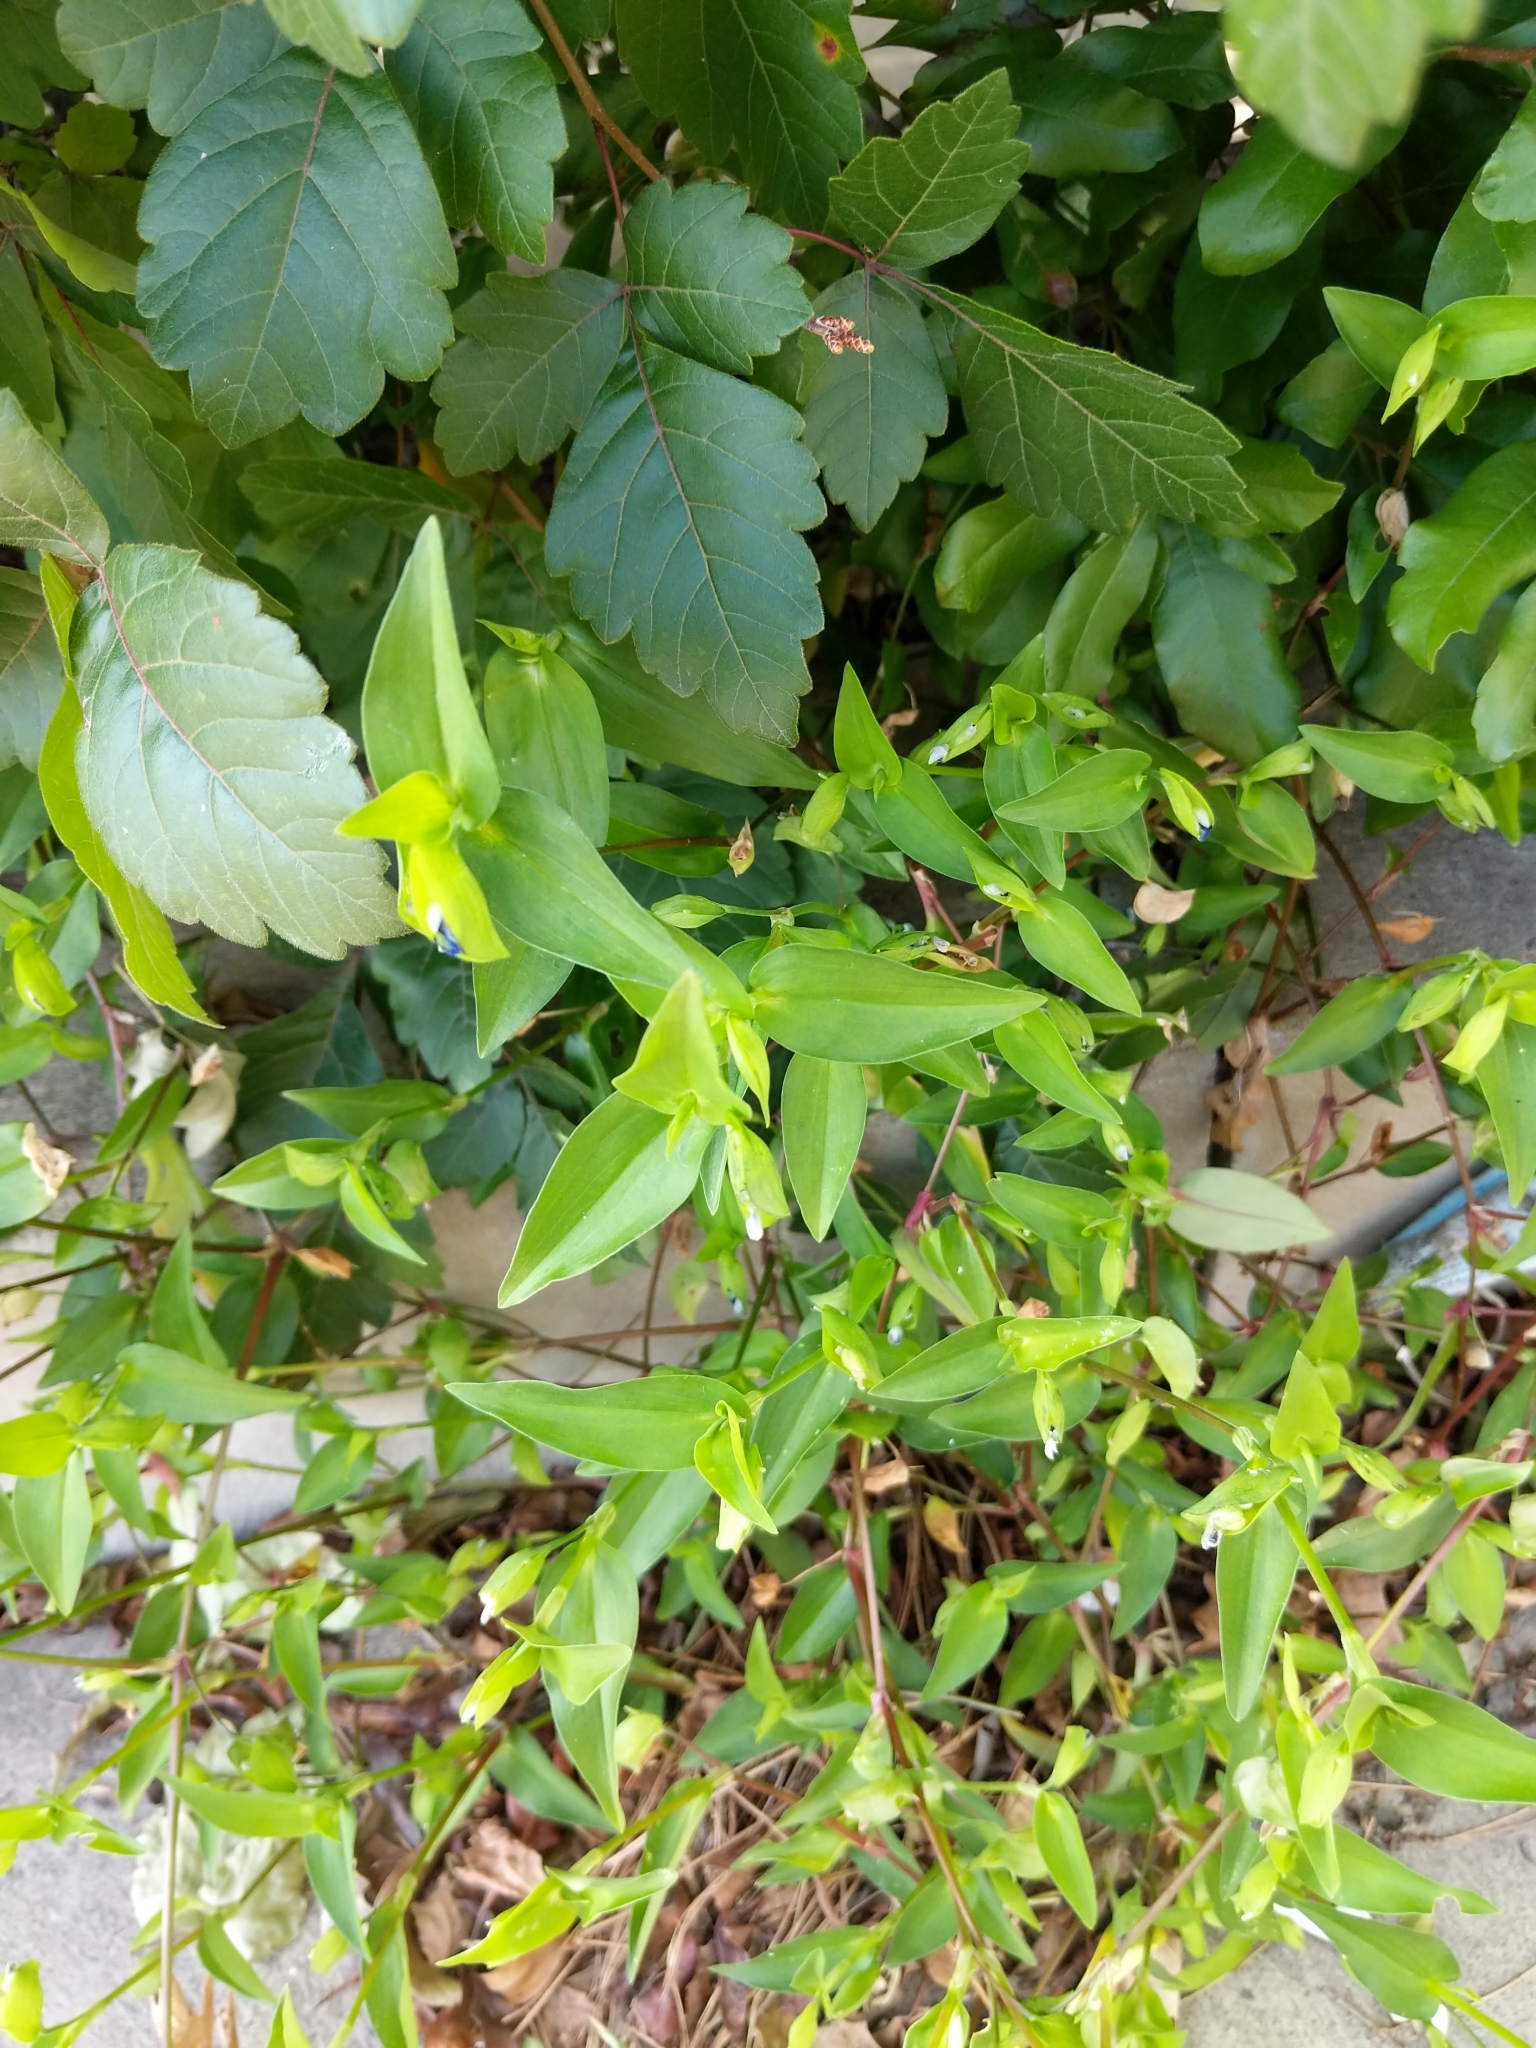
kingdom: Plantae
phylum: Tracheophyta
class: Liliopsida
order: Commelinales
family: Commelinaceae
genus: Commelina
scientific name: Commelina communis
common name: Asiatic dayflower
